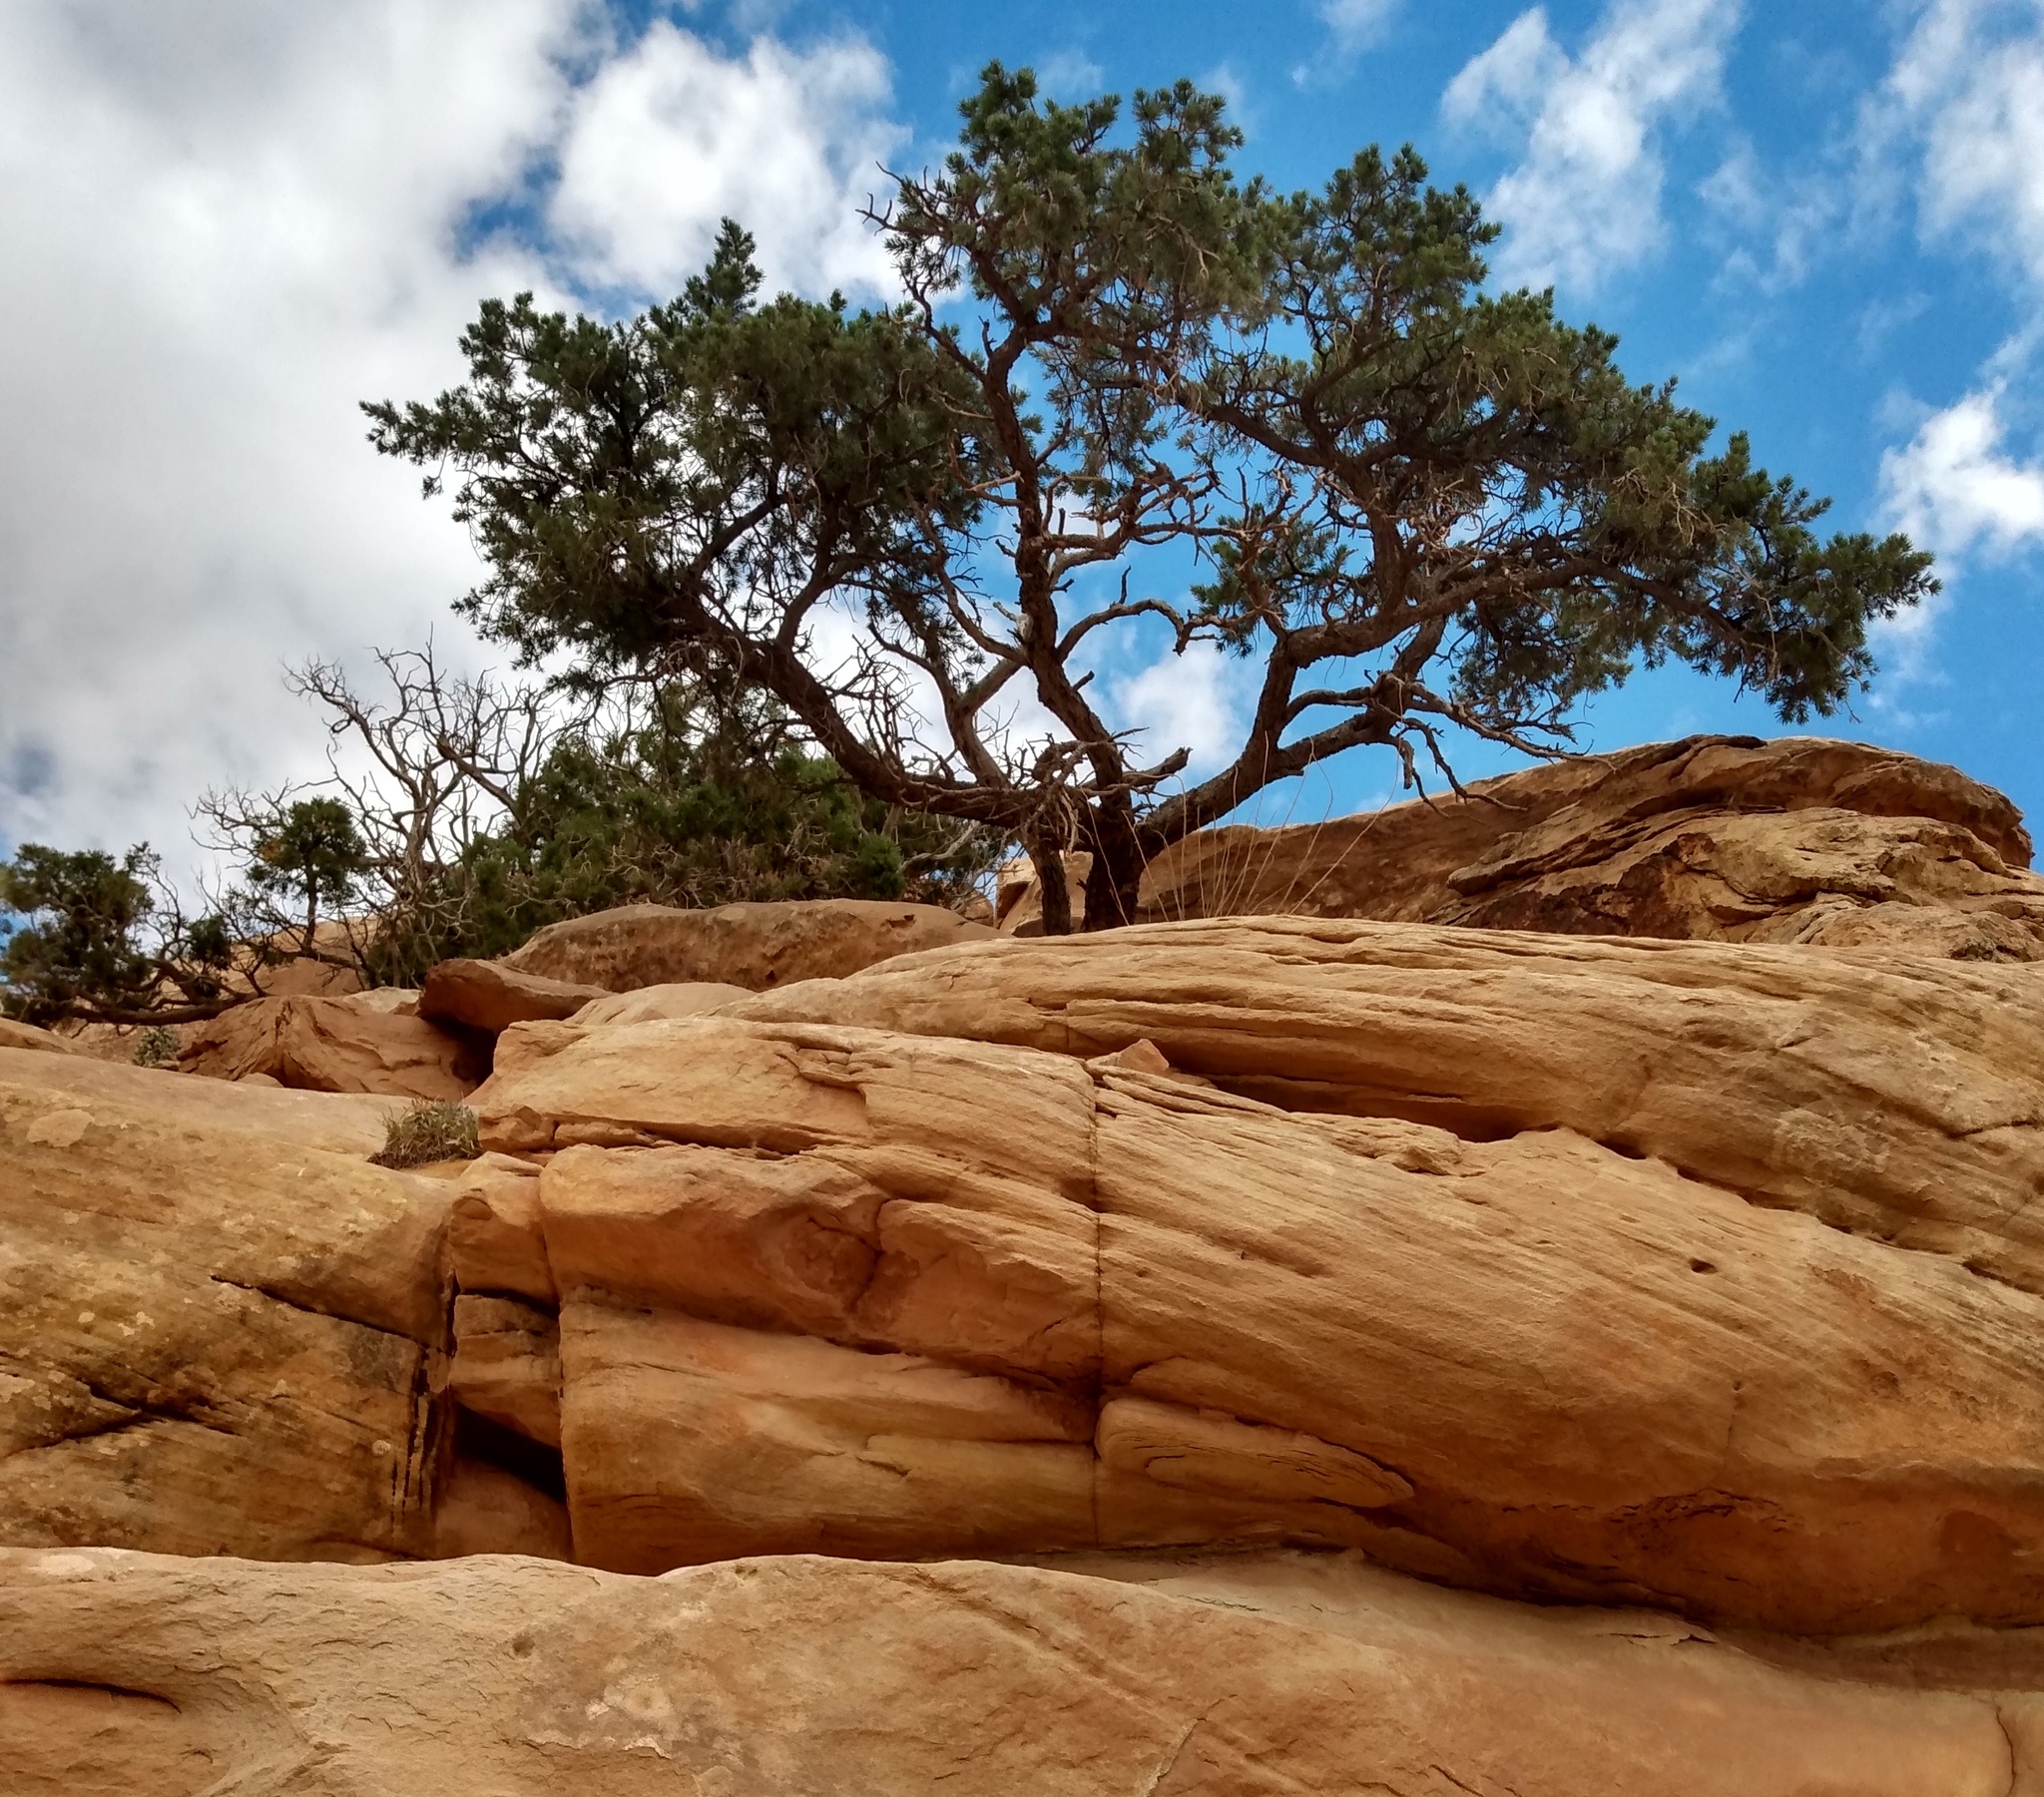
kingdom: Plantae
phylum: Tracheophyta
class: Pinopsida
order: Pinales
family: Pinaceae
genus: Pinus
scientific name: Pinus edulis
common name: Colorado pinyon
